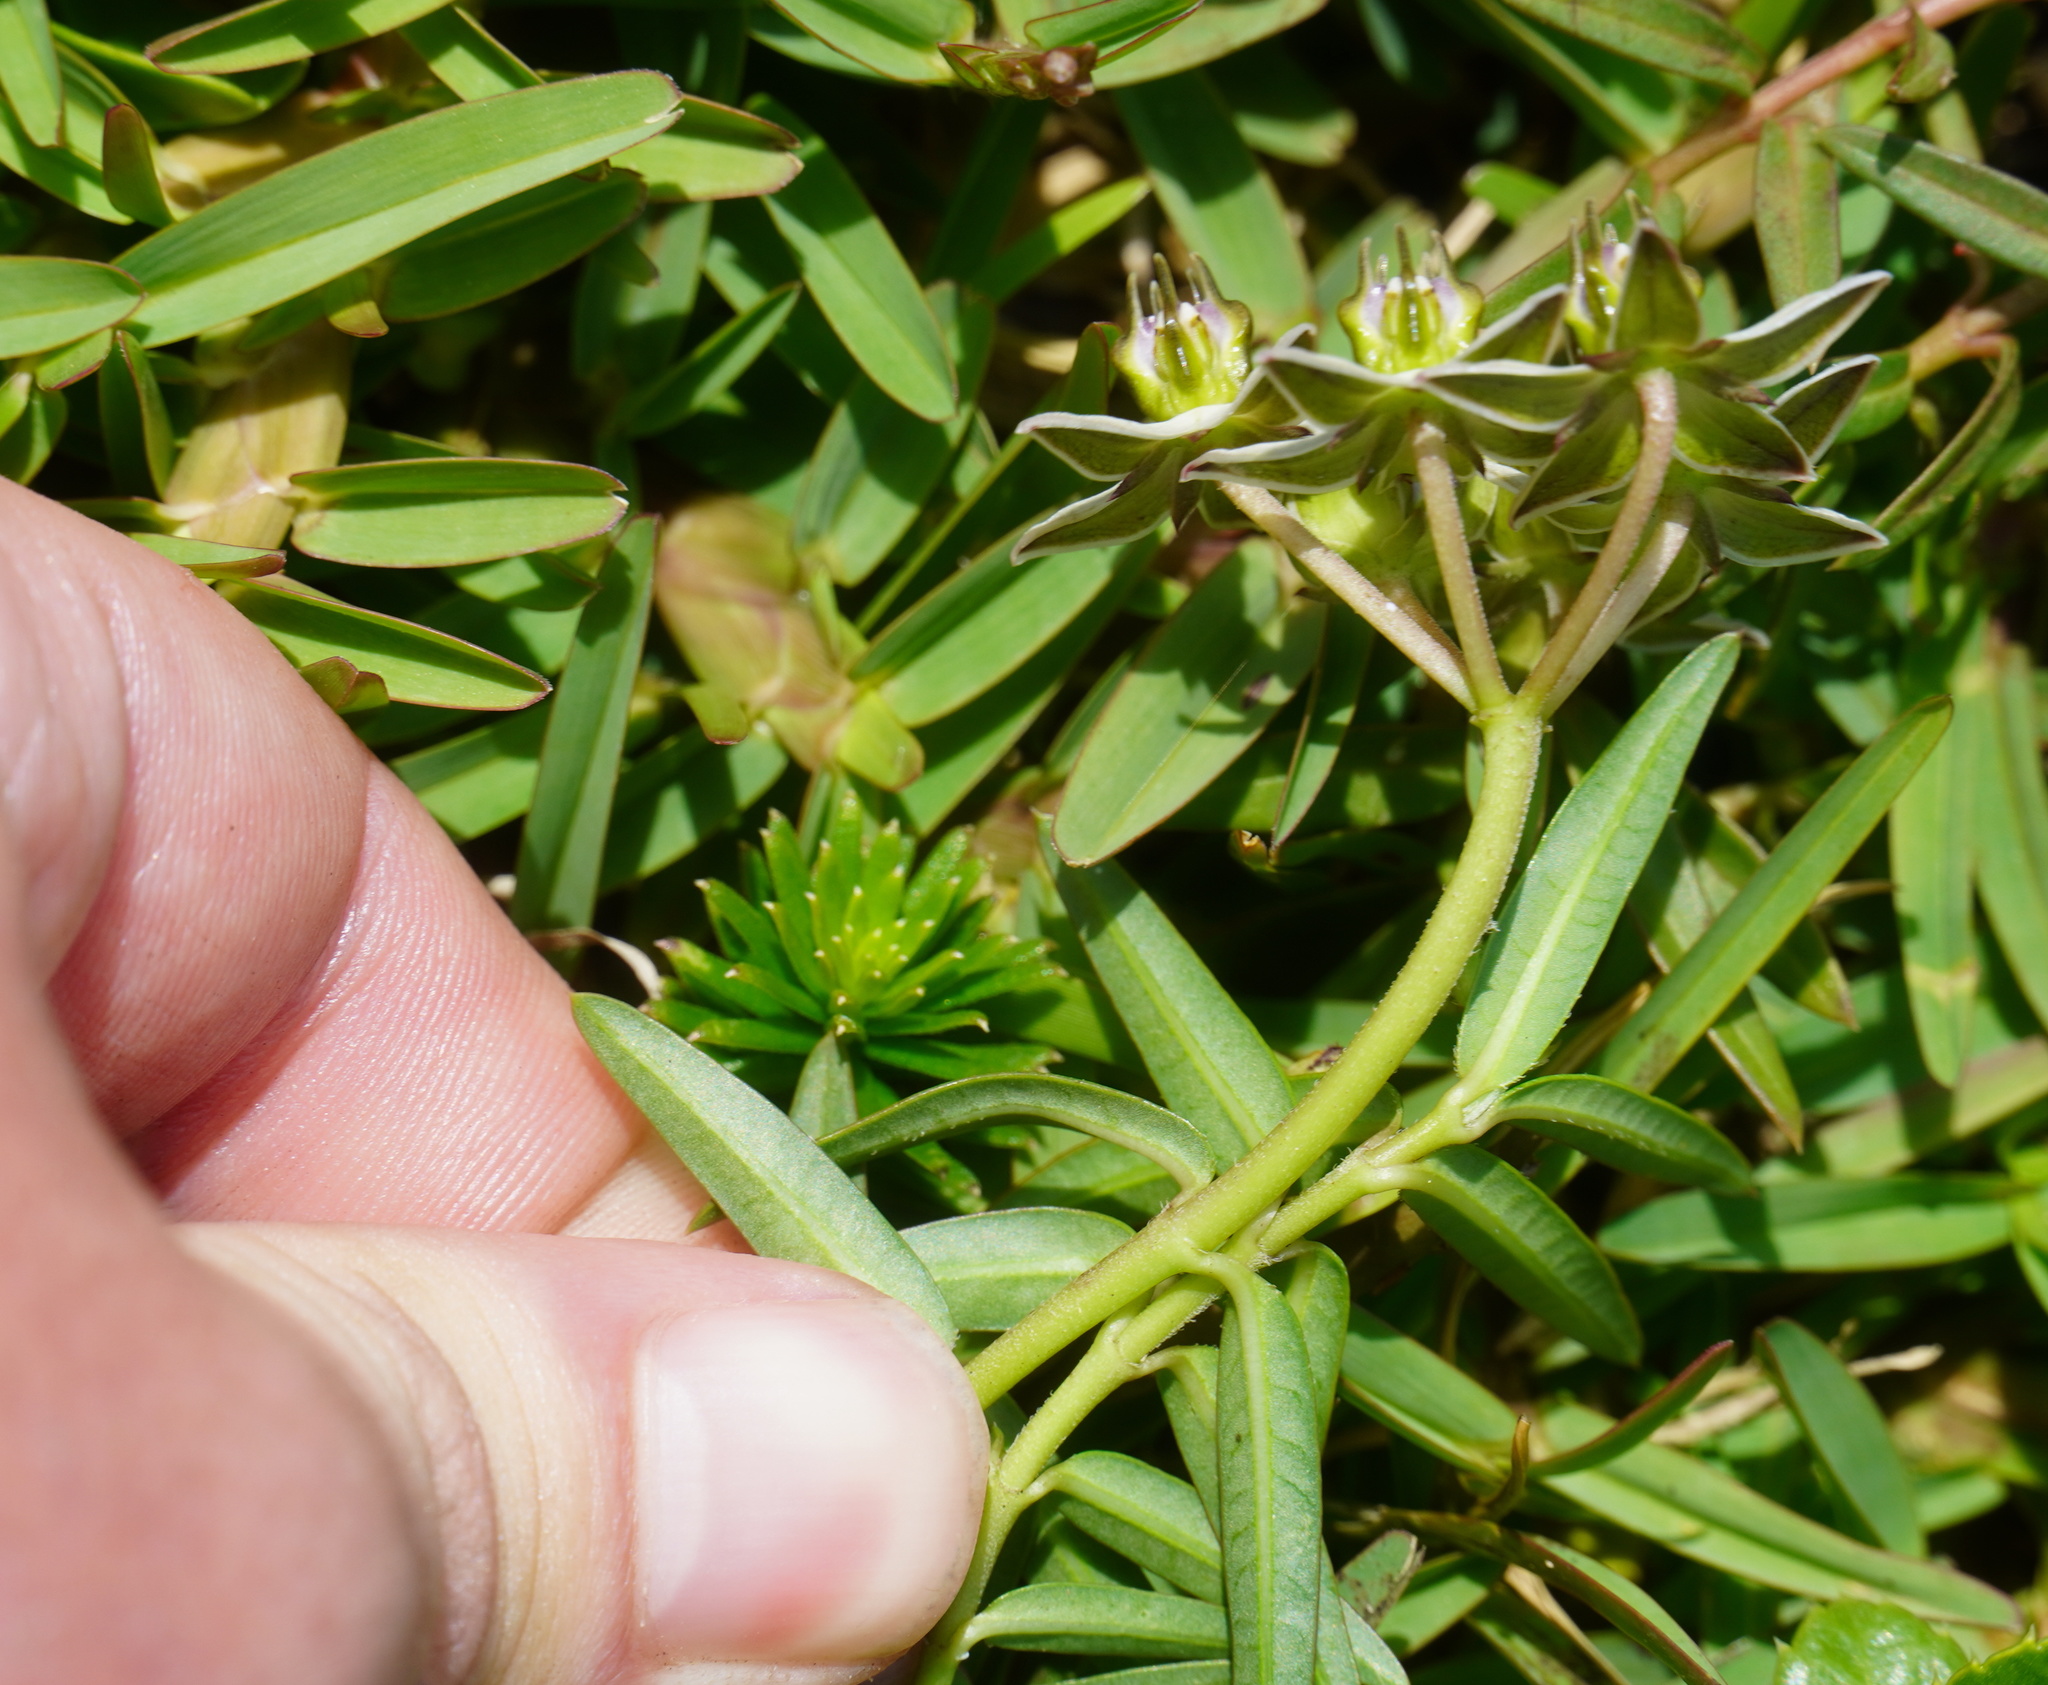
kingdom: Plantae
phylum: Tracheophyta
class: Magnoliopsida
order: Gentianales
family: Apocynaceae
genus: Asclepias
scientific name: Asclepias gibba
